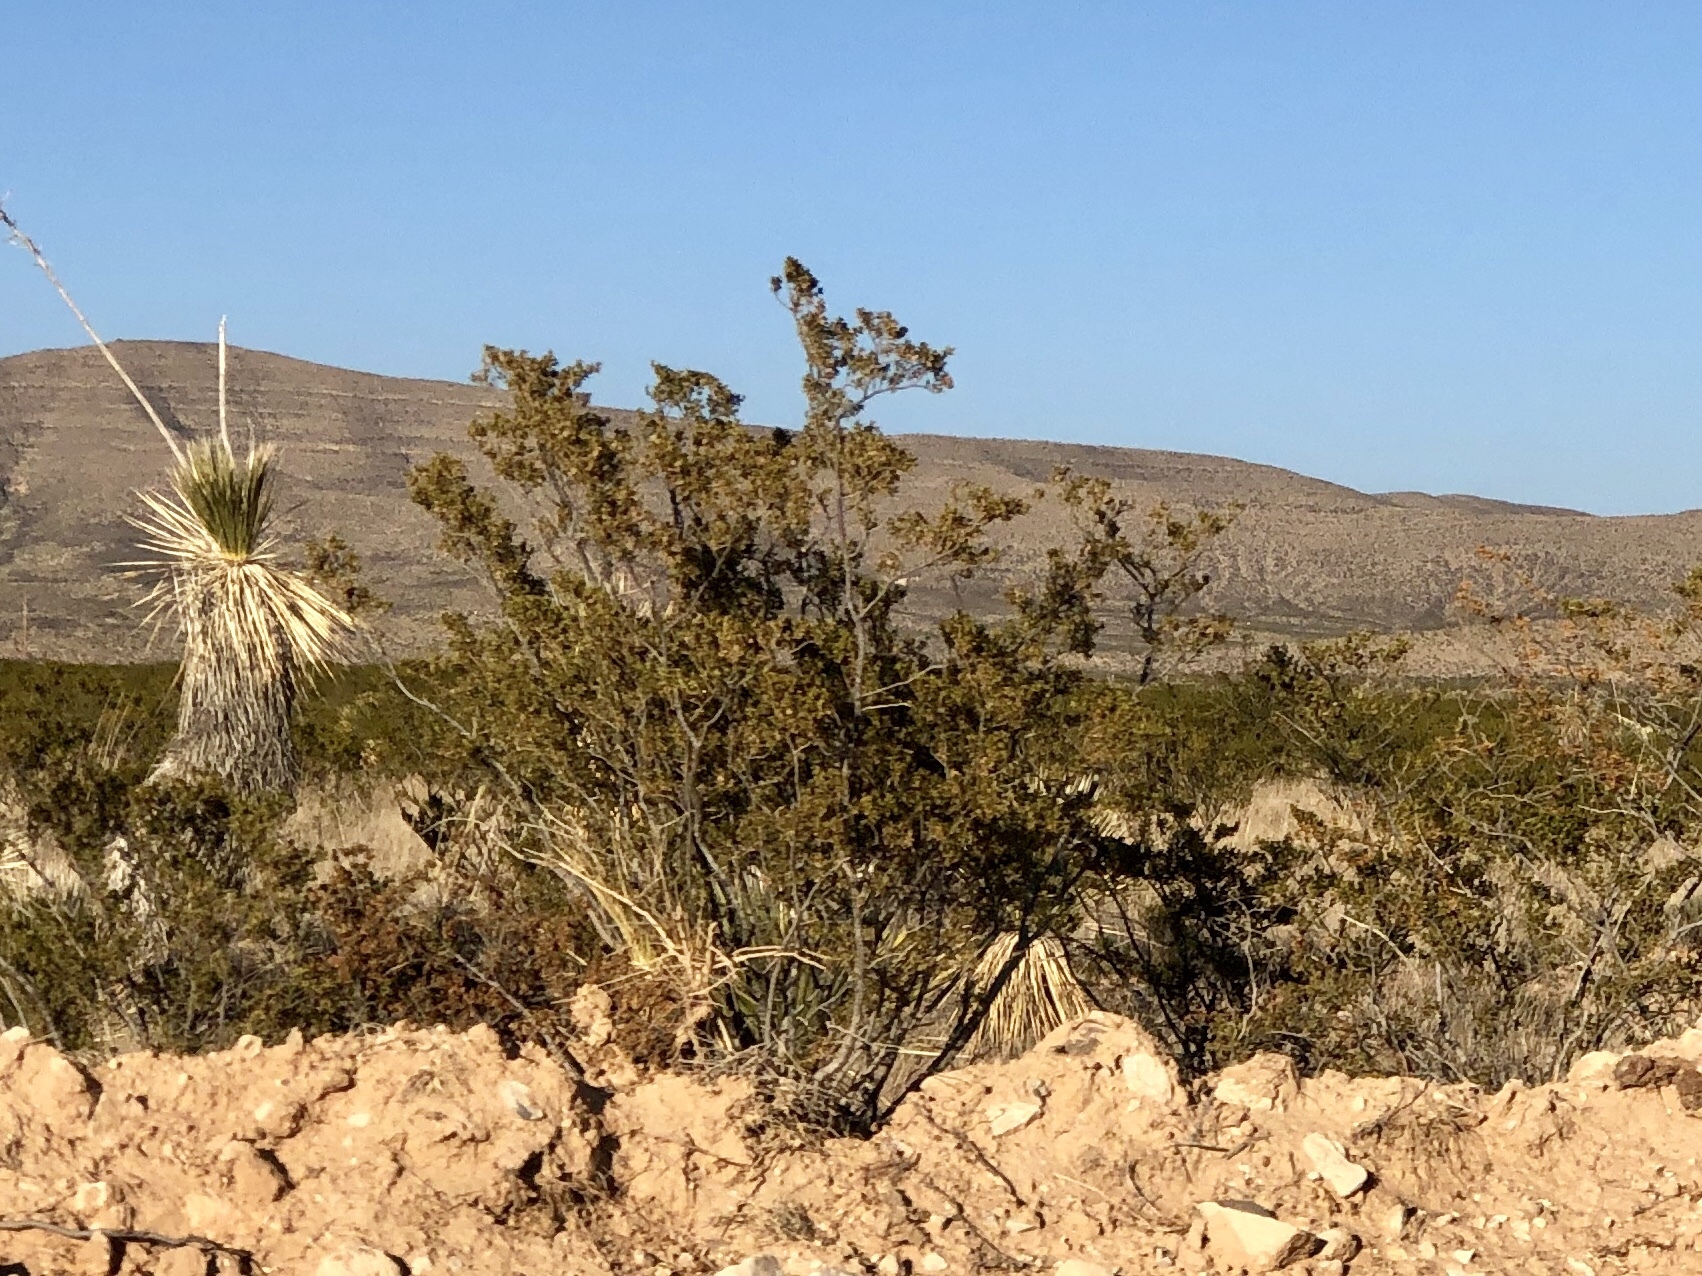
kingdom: Plantae
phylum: Tracheophyta
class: Magnoliopsida
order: Zygophyllales
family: Zygophyllaceae
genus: Larrea
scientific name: Larrea tridentata
